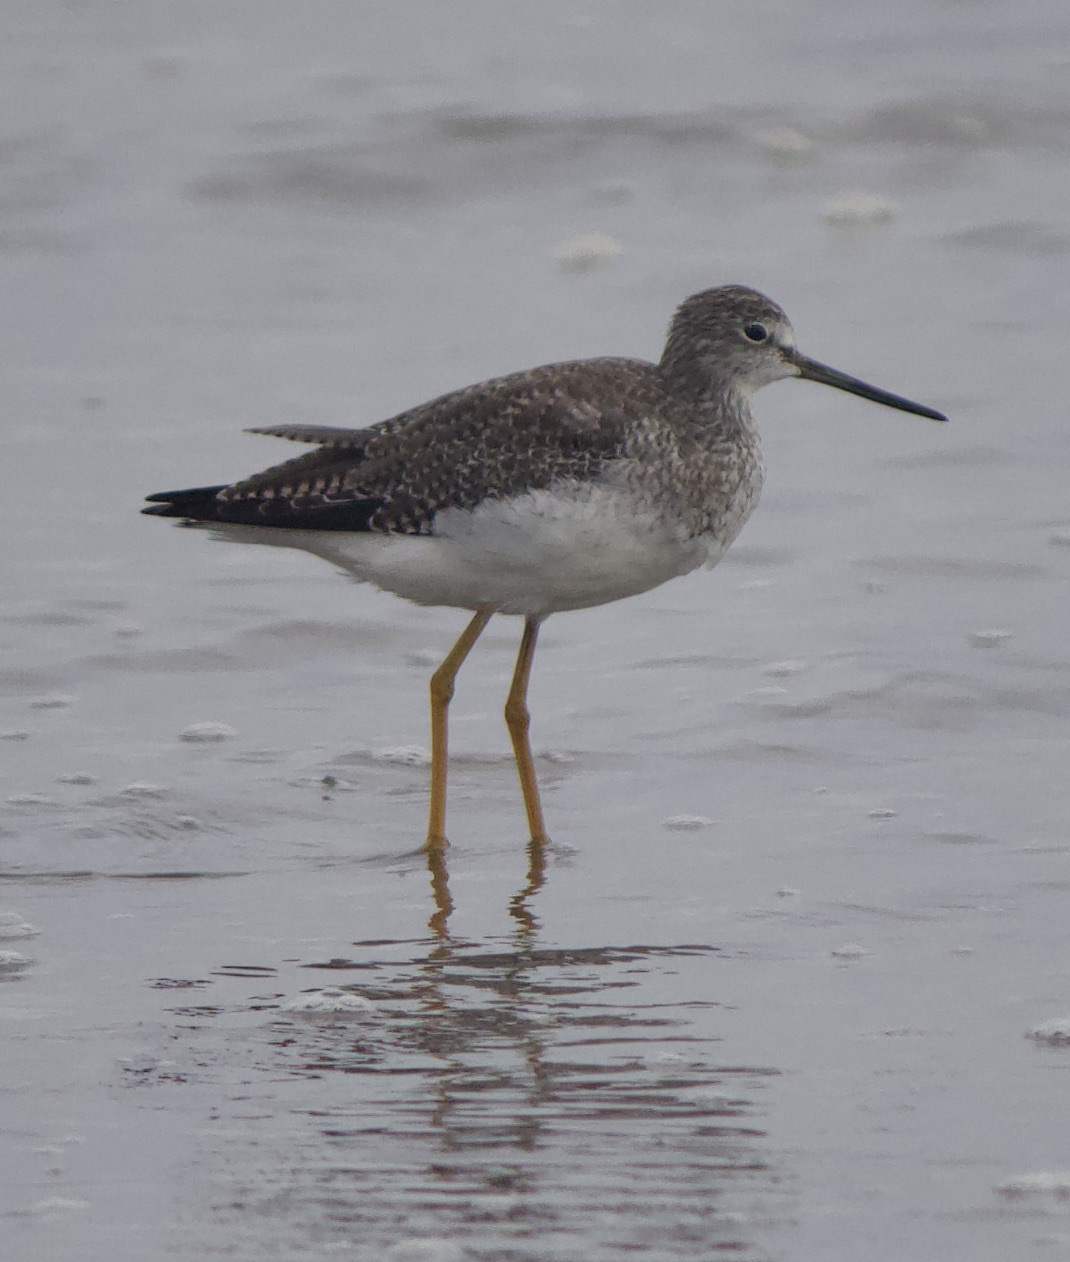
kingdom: Animalia
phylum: Chordata
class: Aves
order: Charadriiformes
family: Scolopacidae
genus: Tringa
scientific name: Tringa melanoleuca
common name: Greater yellowlegs
